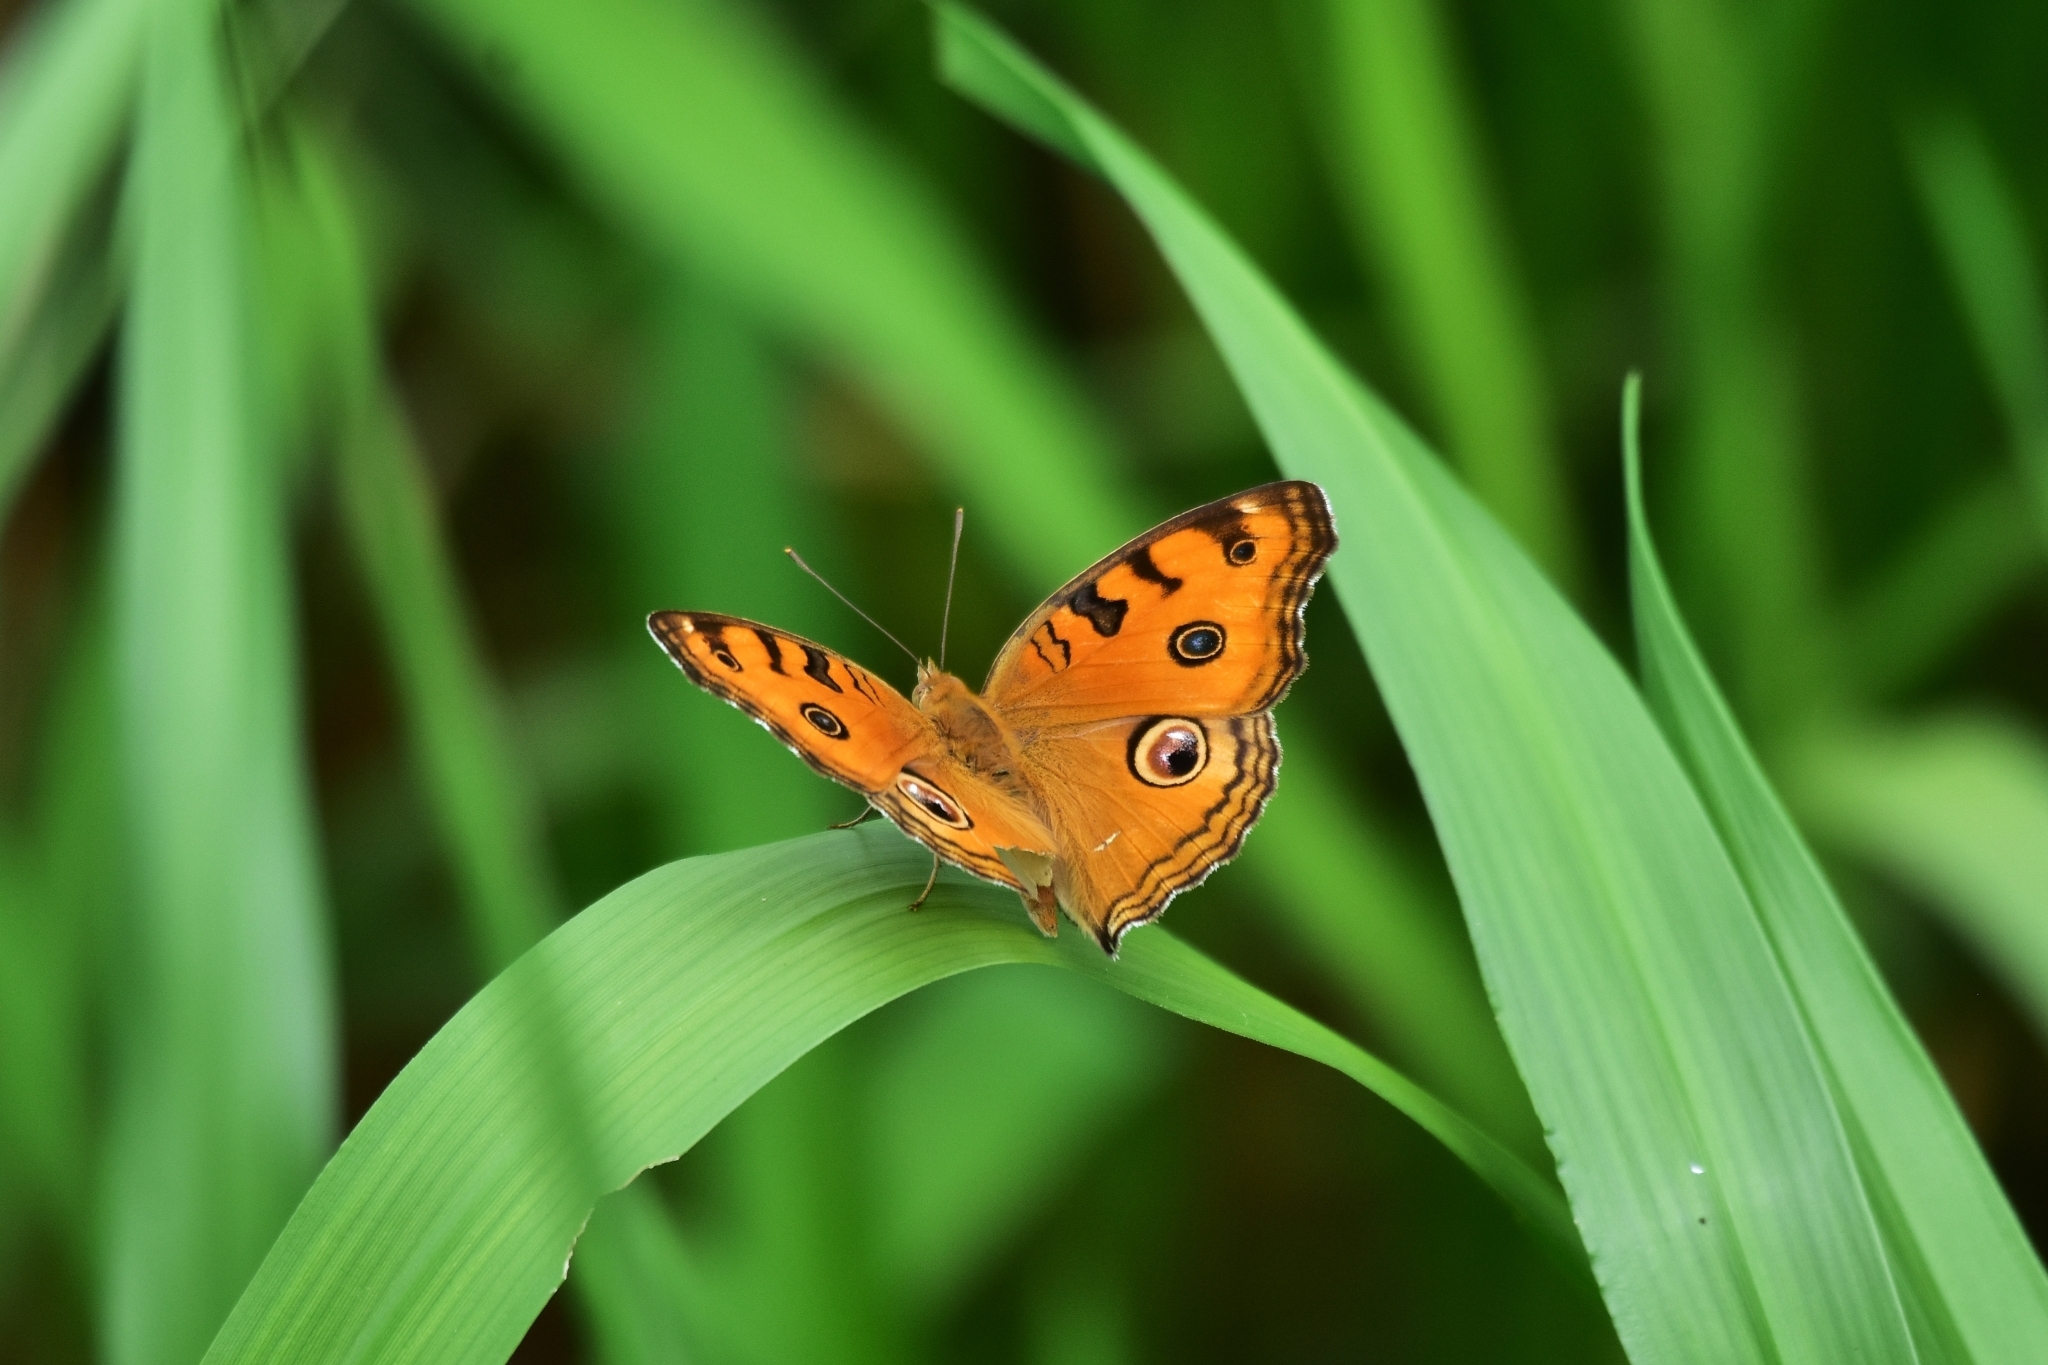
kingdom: Animalia
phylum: Arthropoda
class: Insecta
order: Lepidoptera
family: Nymphalidae
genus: Junonia
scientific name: Junonia almana
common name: Peacock pansy
